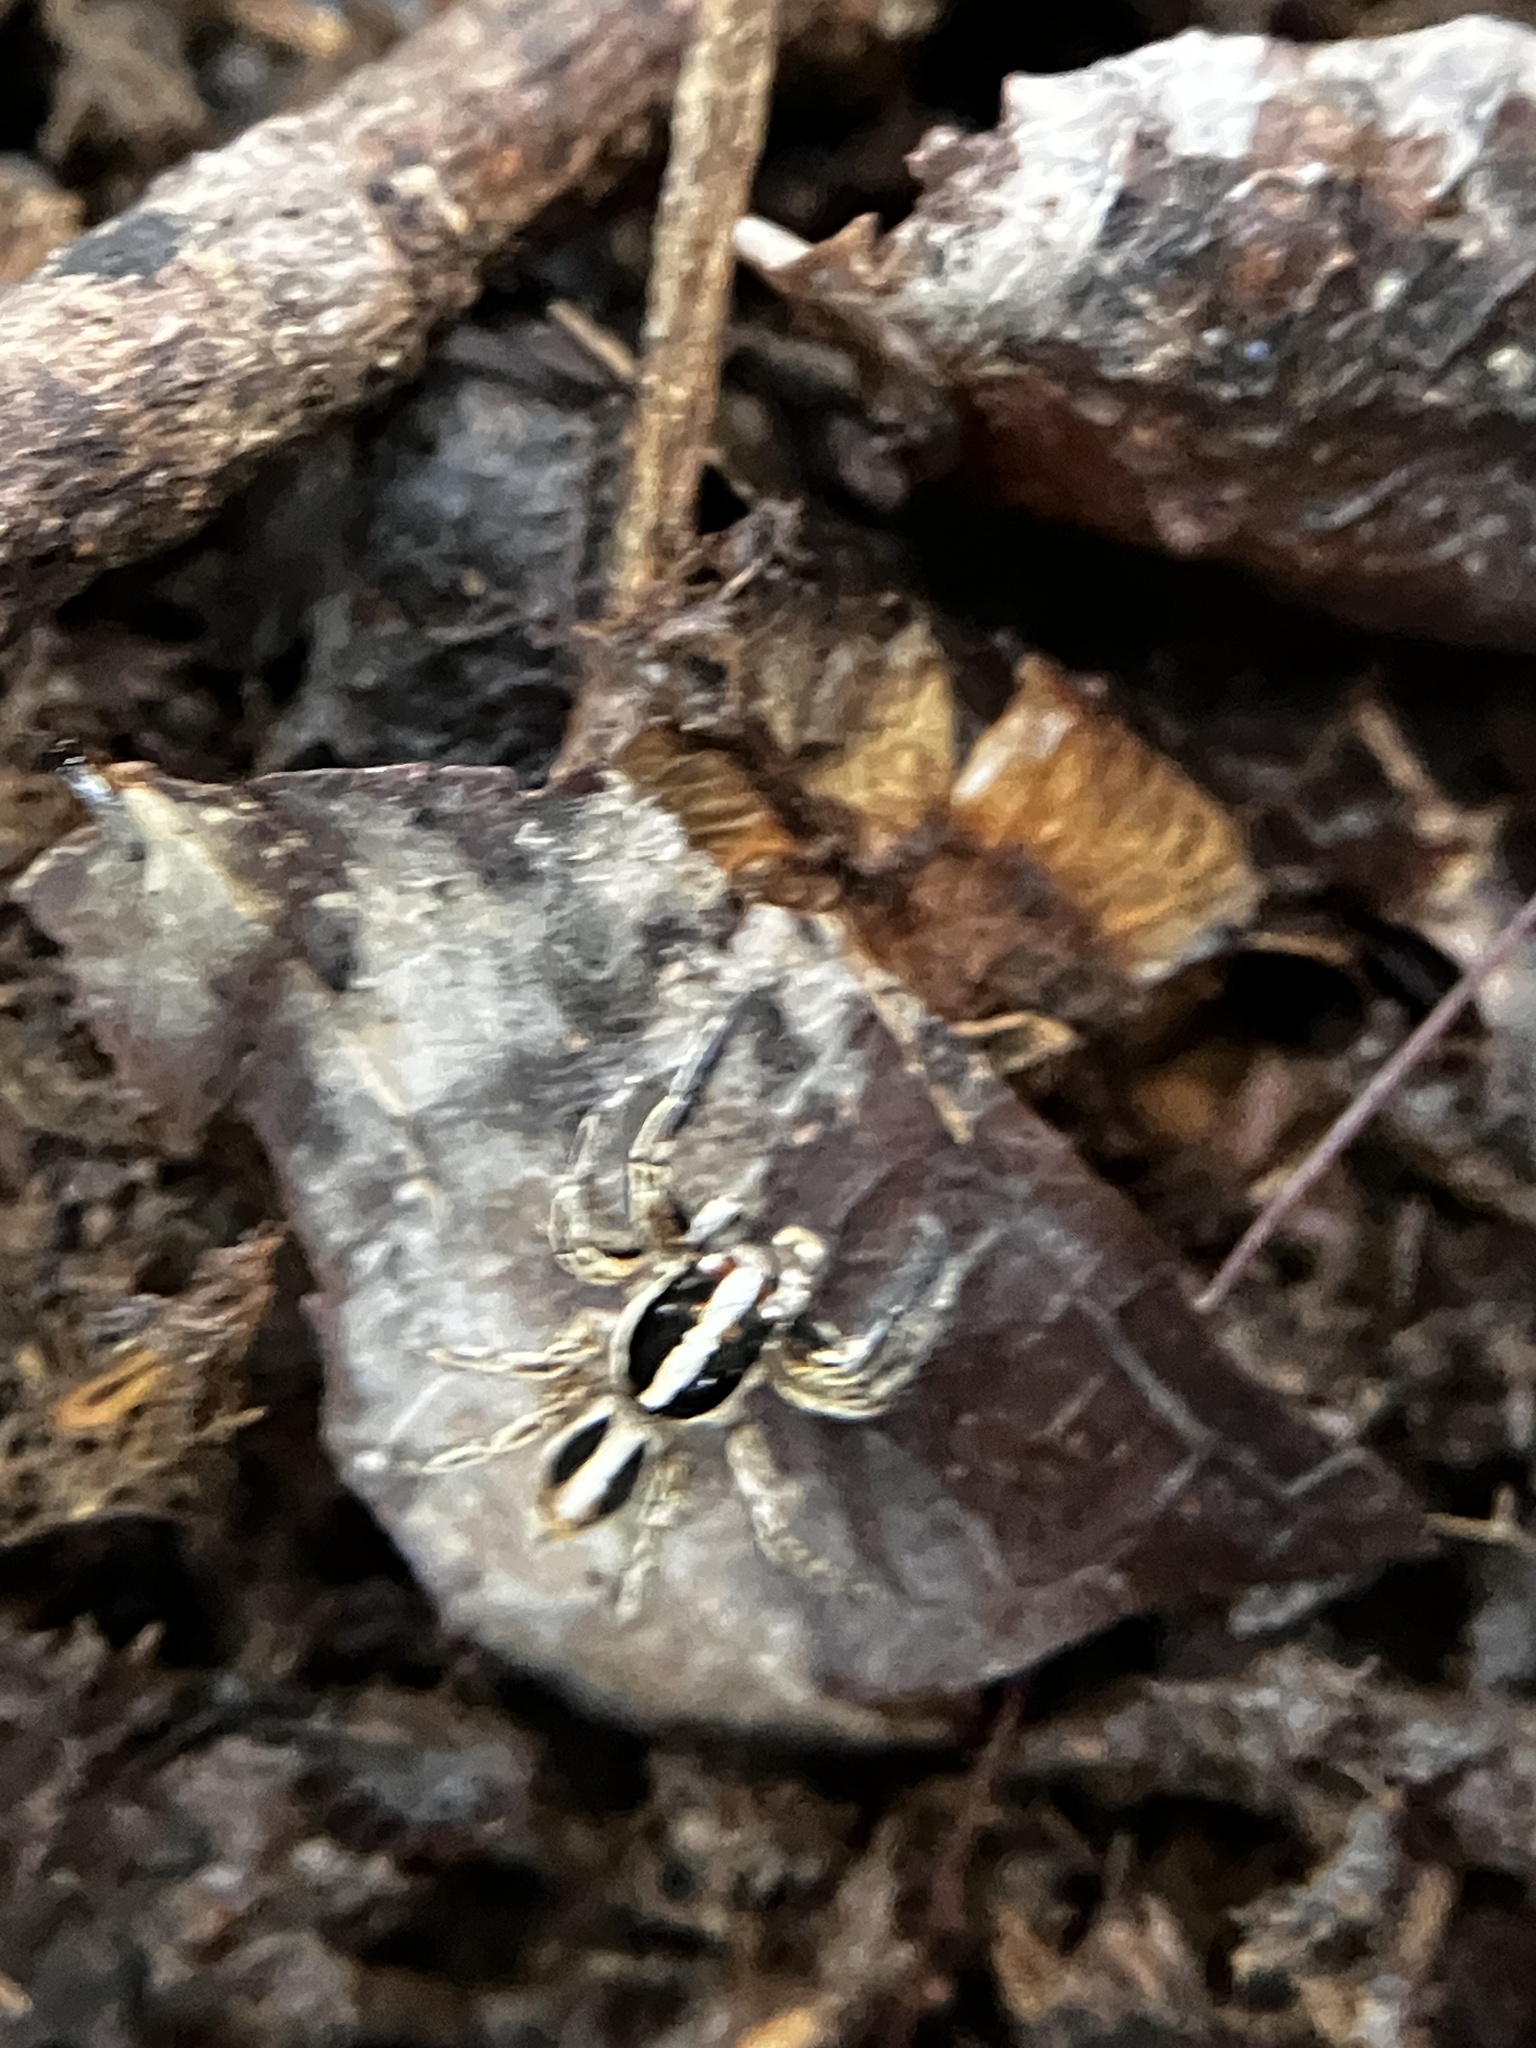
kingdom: Animalia
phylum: Arthropoda
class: Arachnida
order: Araneae
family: Salticidae
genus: Plexippus
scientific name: Plexippus paykulli
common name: Pantropical jumper
